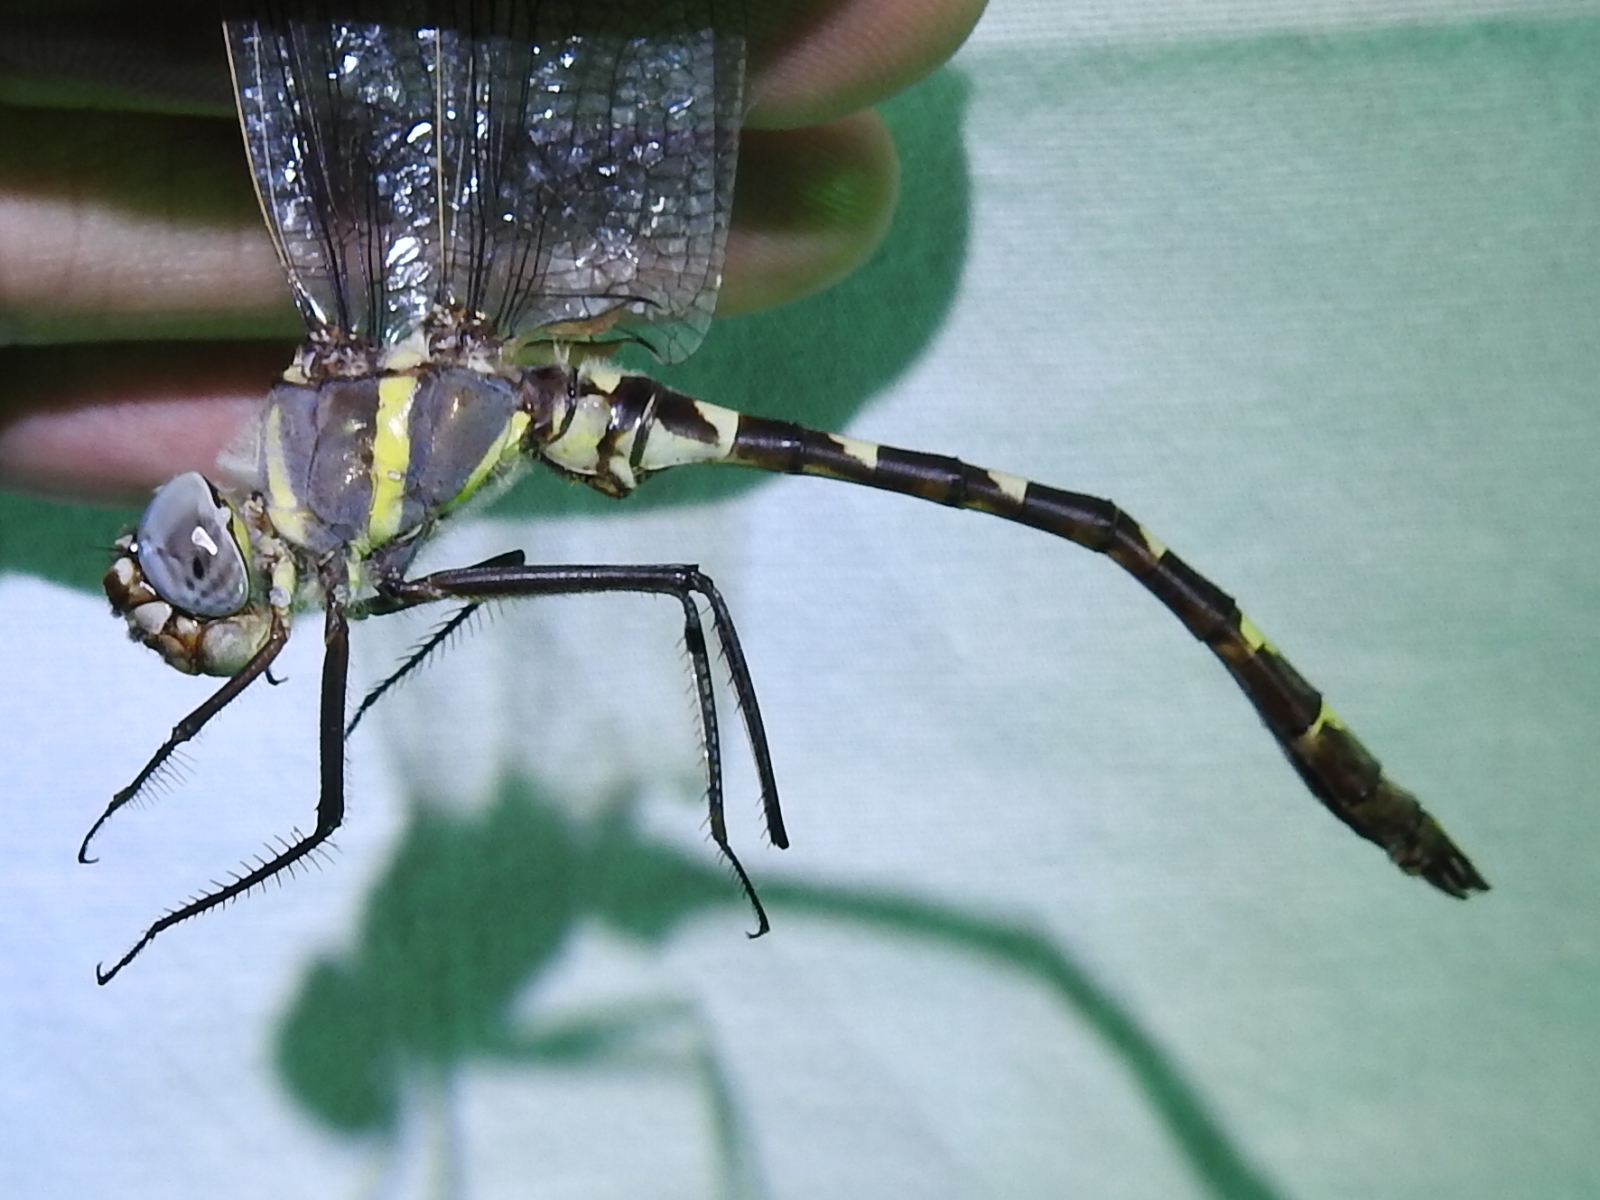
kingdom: Animalia
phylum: Arthropoda
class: Insecta
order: Odonata
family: Macromiidae
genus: Macromia
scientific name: Macromia annulata
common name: Bronzed river cruiser
